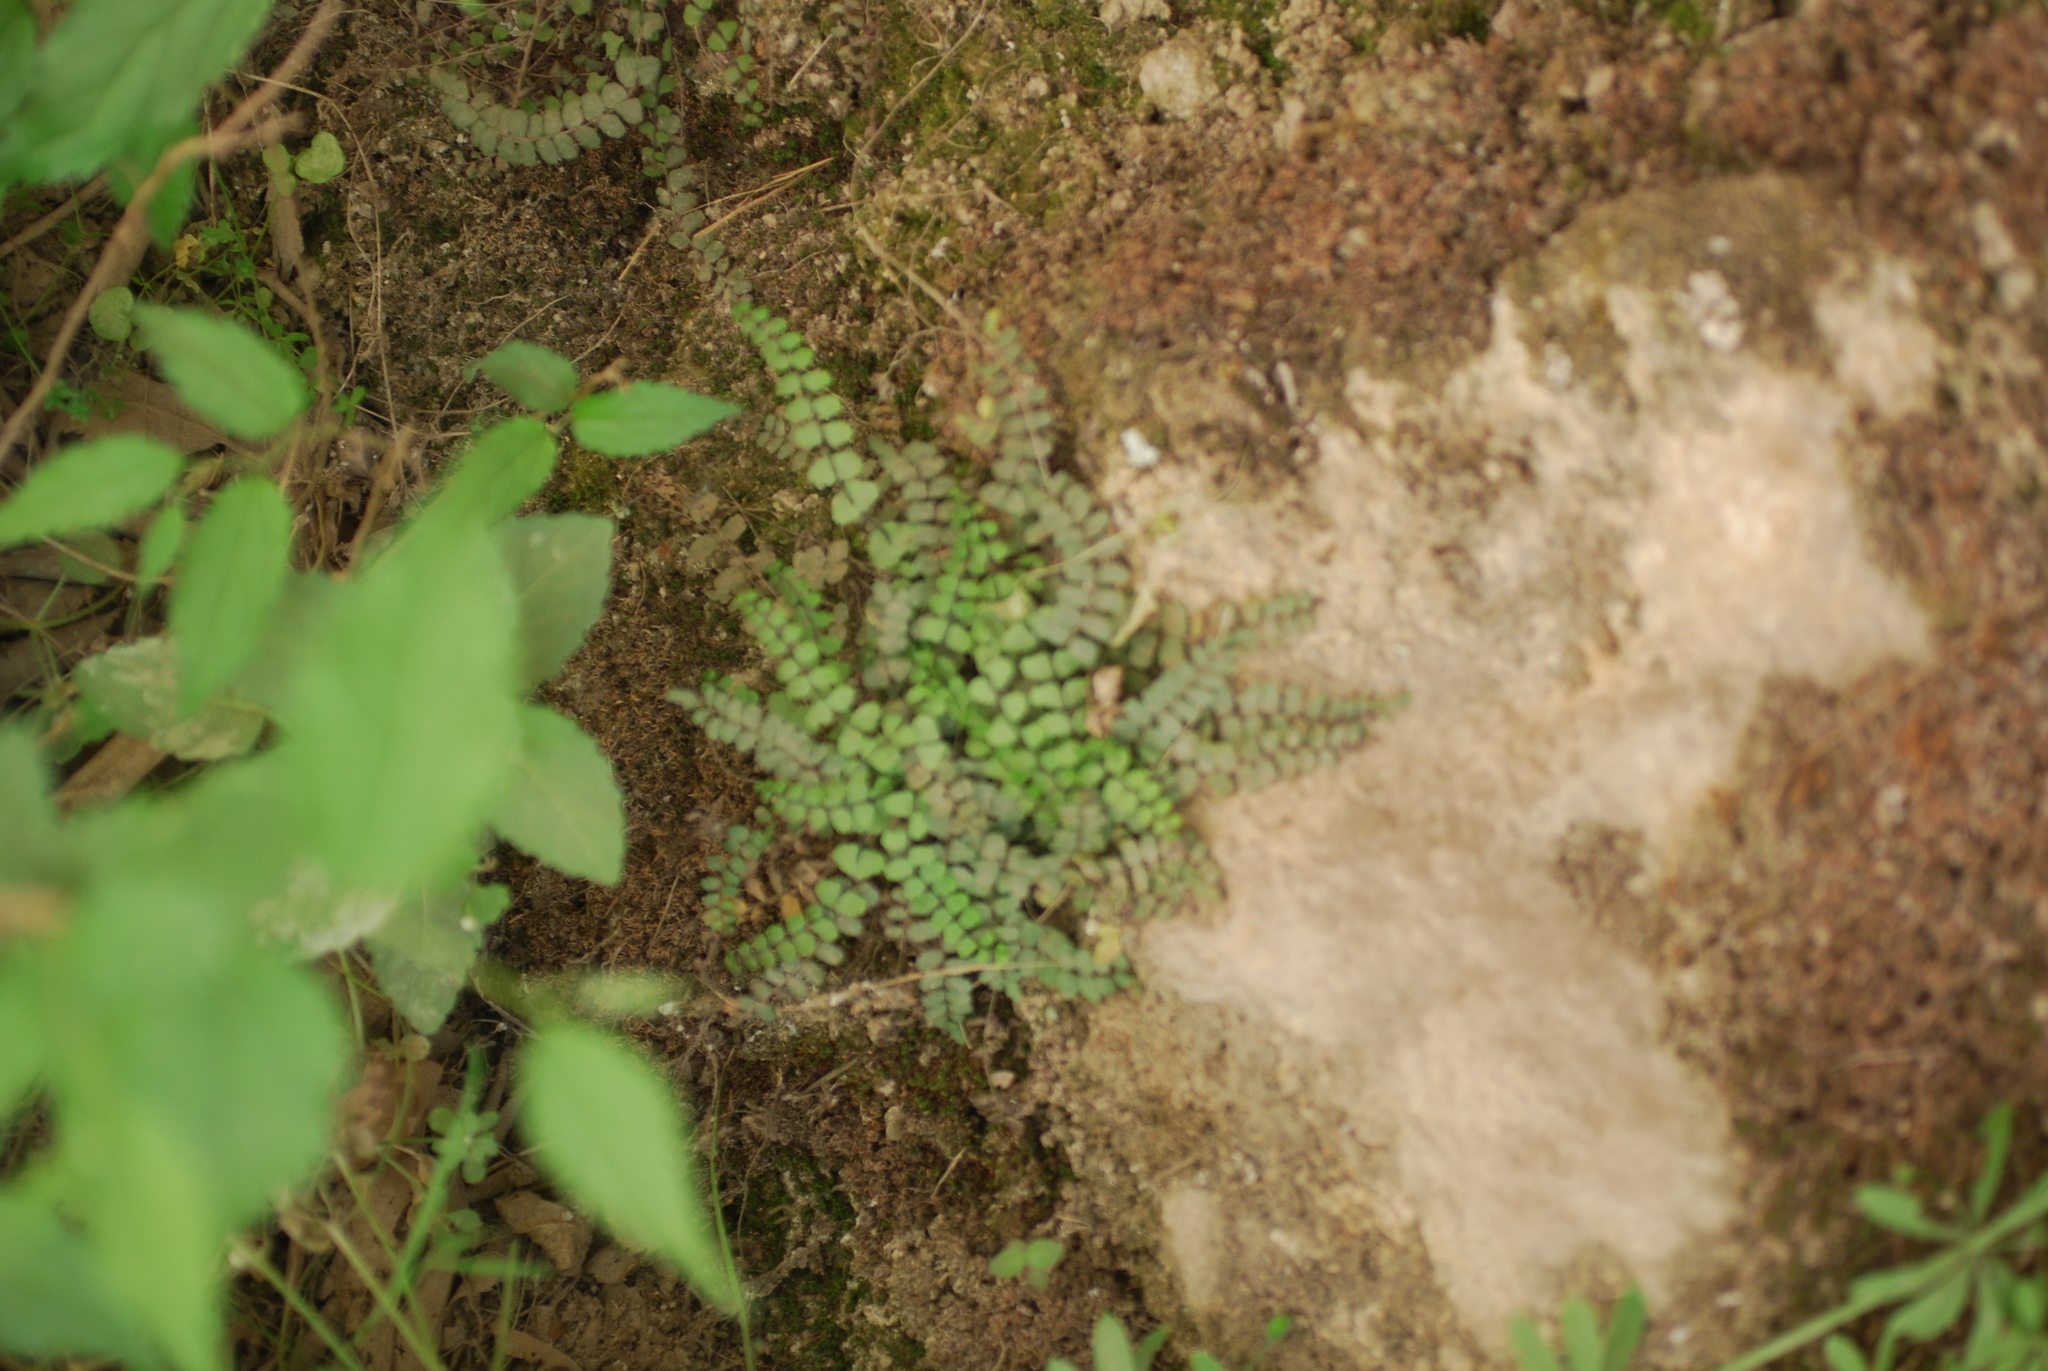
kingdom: Plantae
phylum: Tracheophyta
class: Polypodiopsida
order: Polypodiales
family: Aspleniaceae
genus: Asplenium
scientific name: Asplenium trichomanes
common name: Maidenhair spleenwort
